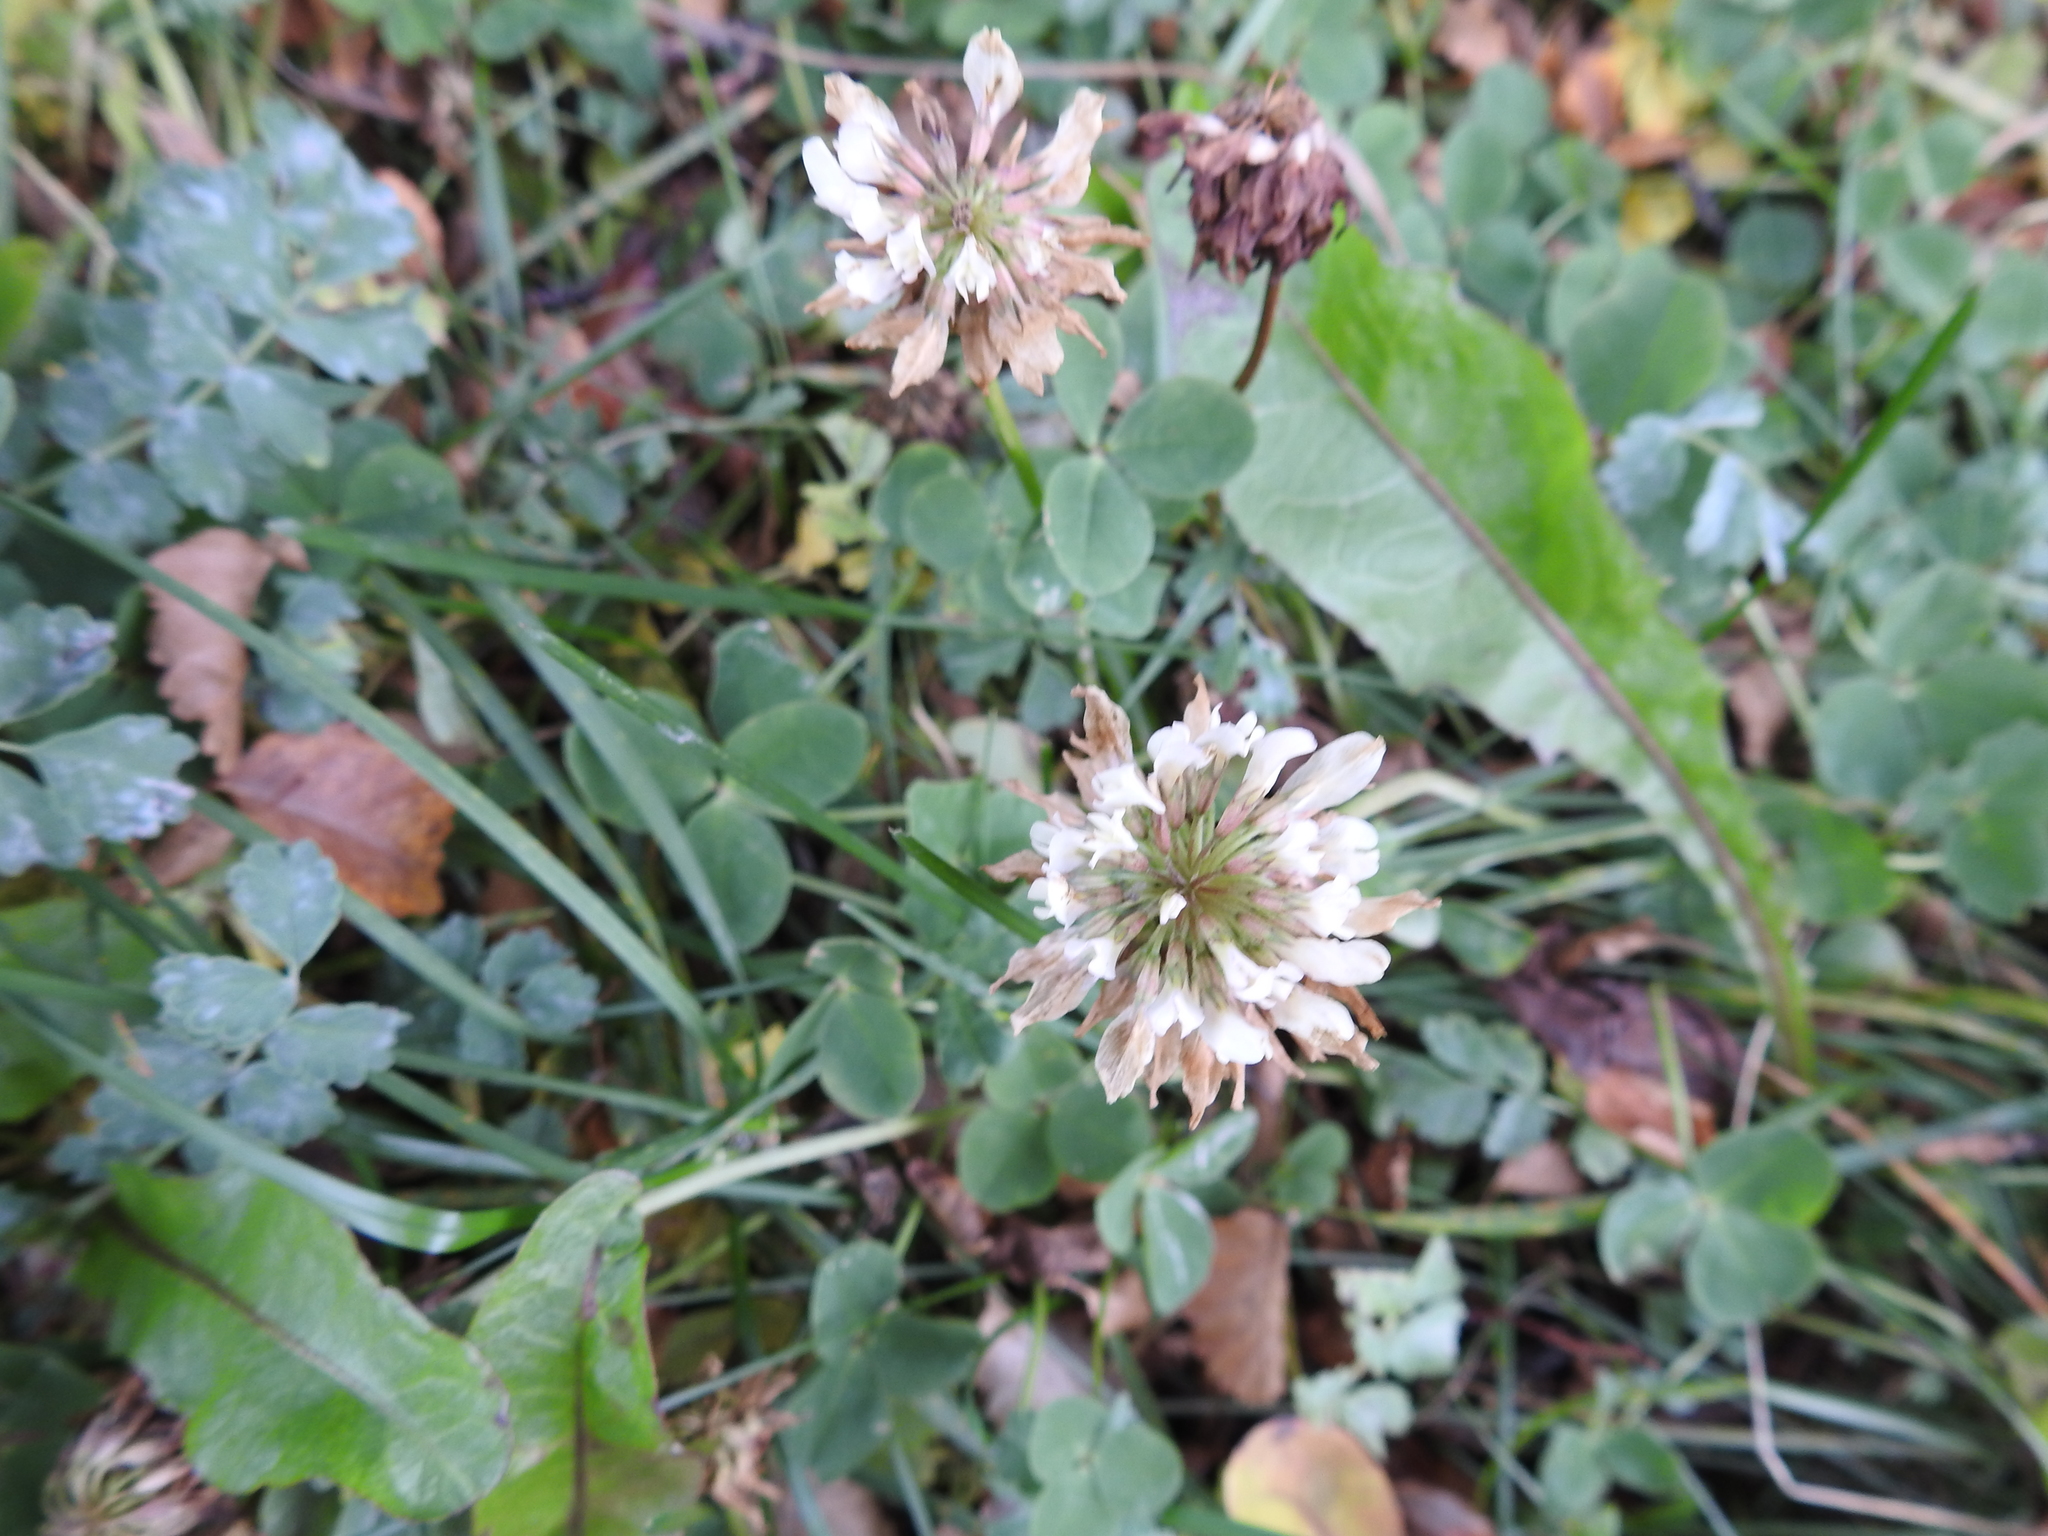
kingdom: Plantae
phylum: Tracheophyta
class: Magnoliopsida
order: Fabales
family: Fabaceae
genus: Trifolium
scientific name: Trifolium repens
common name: White clover
